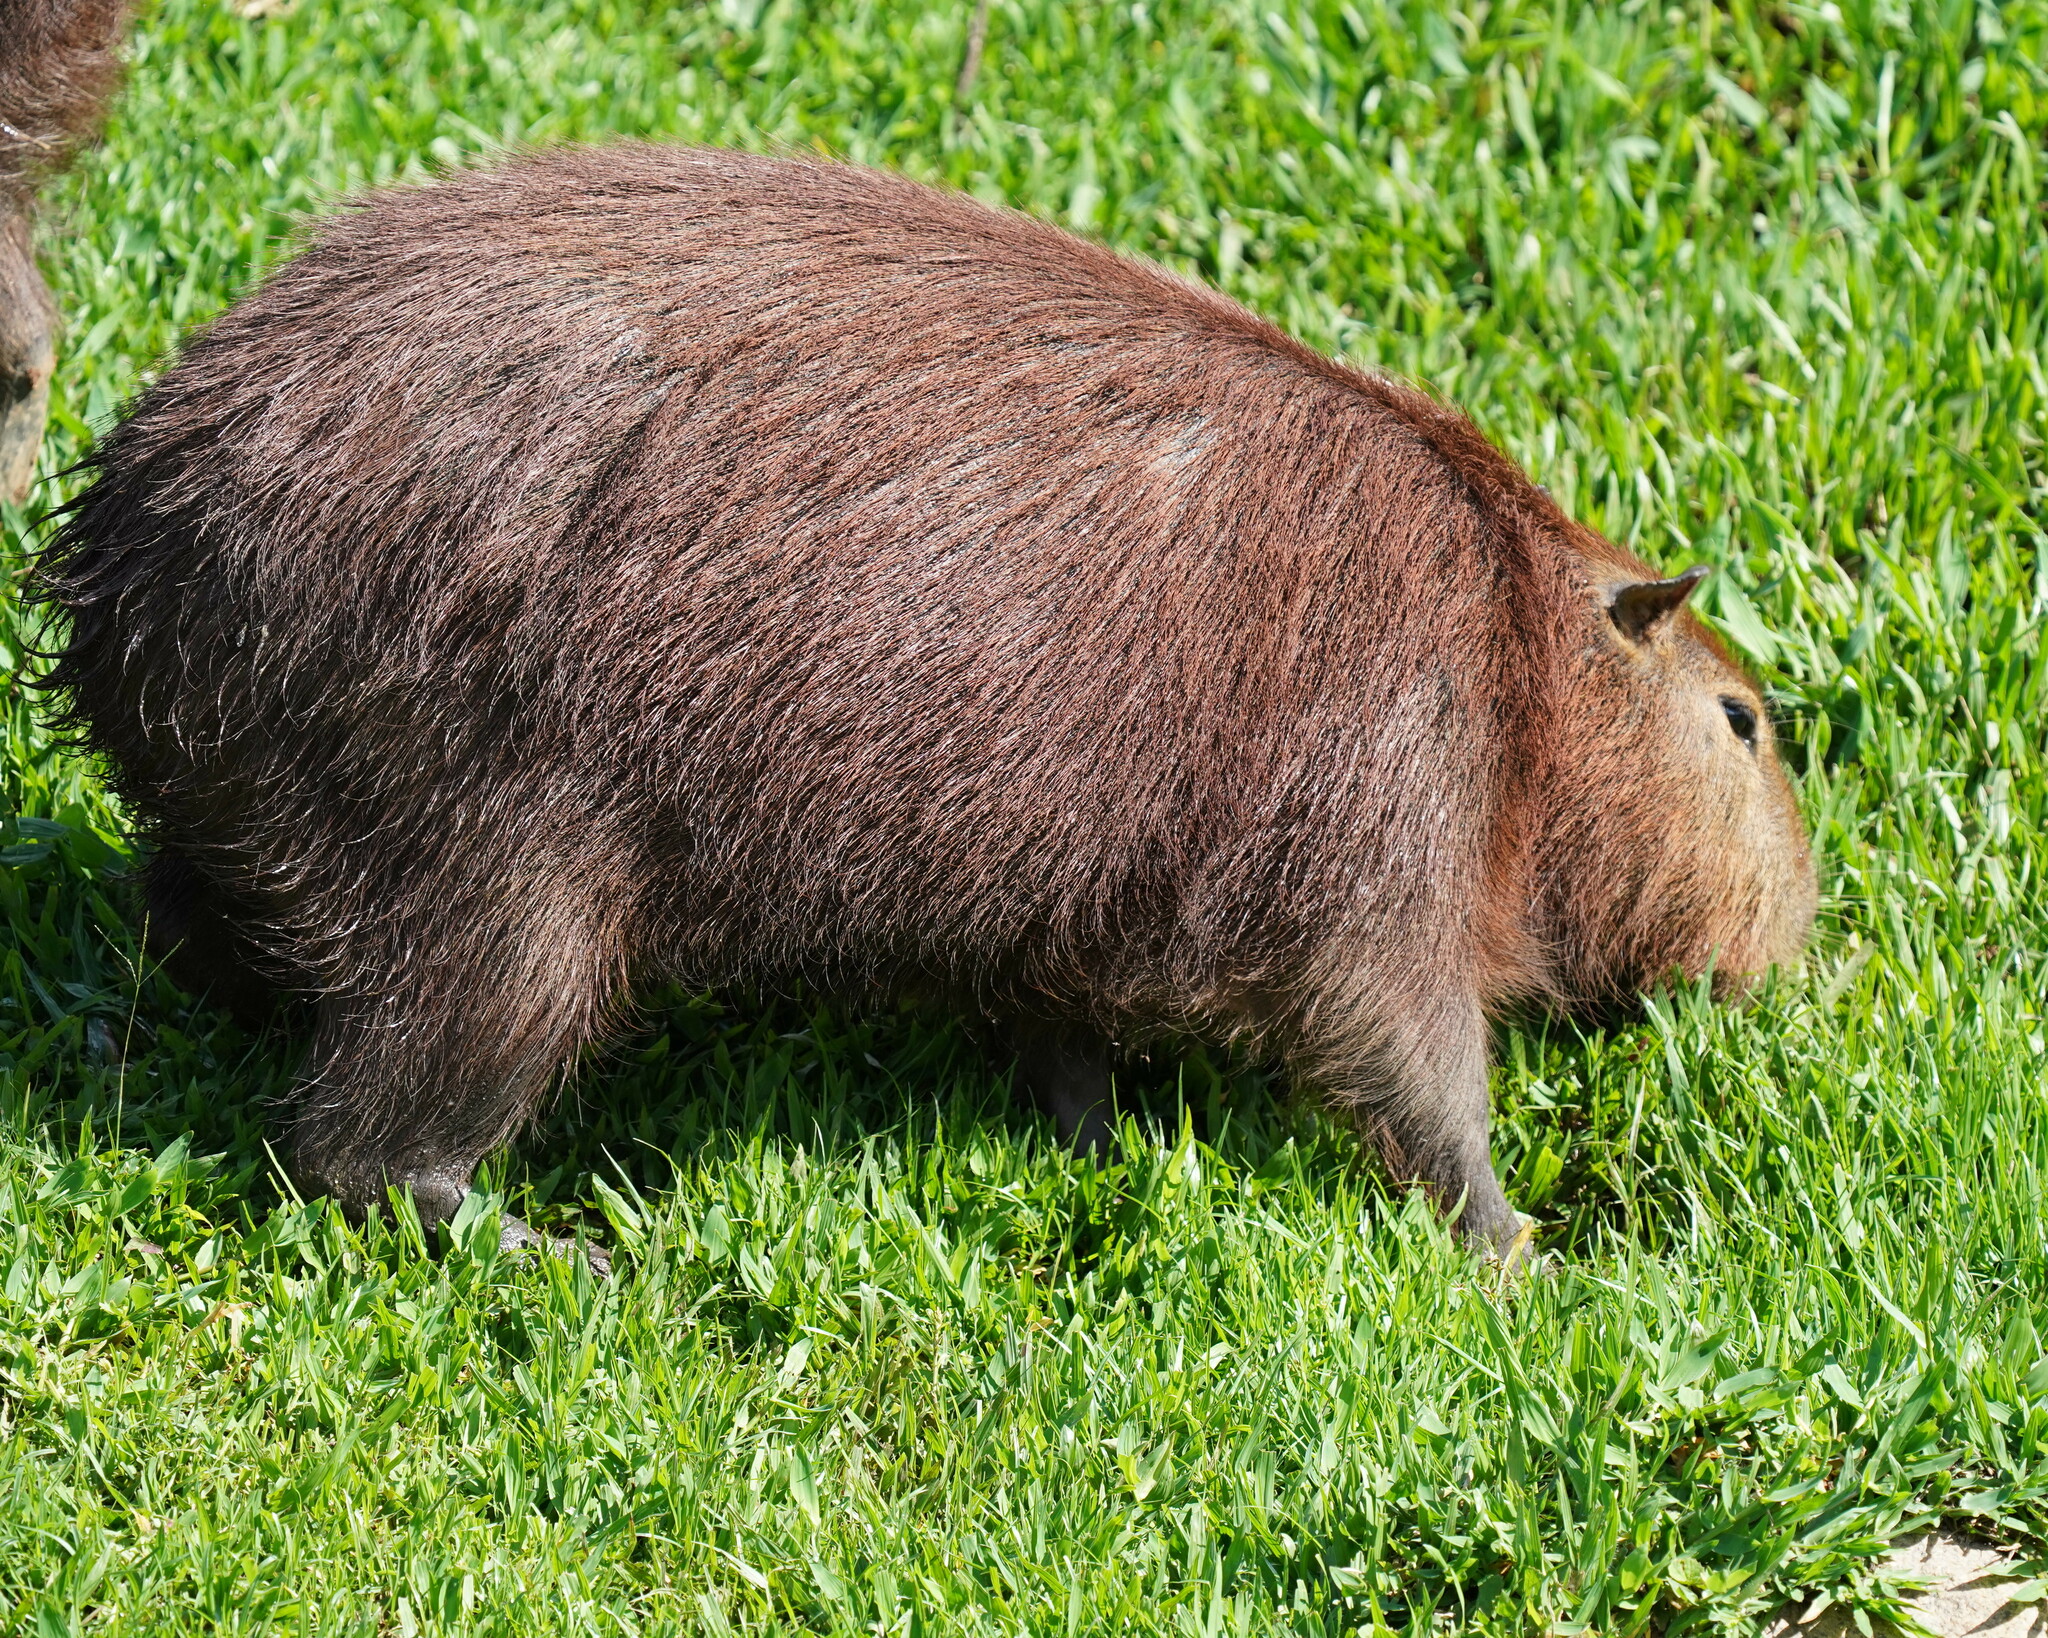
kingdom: Animalia
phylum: Chordata
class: Mammalia
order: Rodentia
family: Caviidae
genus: Hydrochoerus
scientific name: Hydrochoerus hydrochaeris
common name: Capybara
